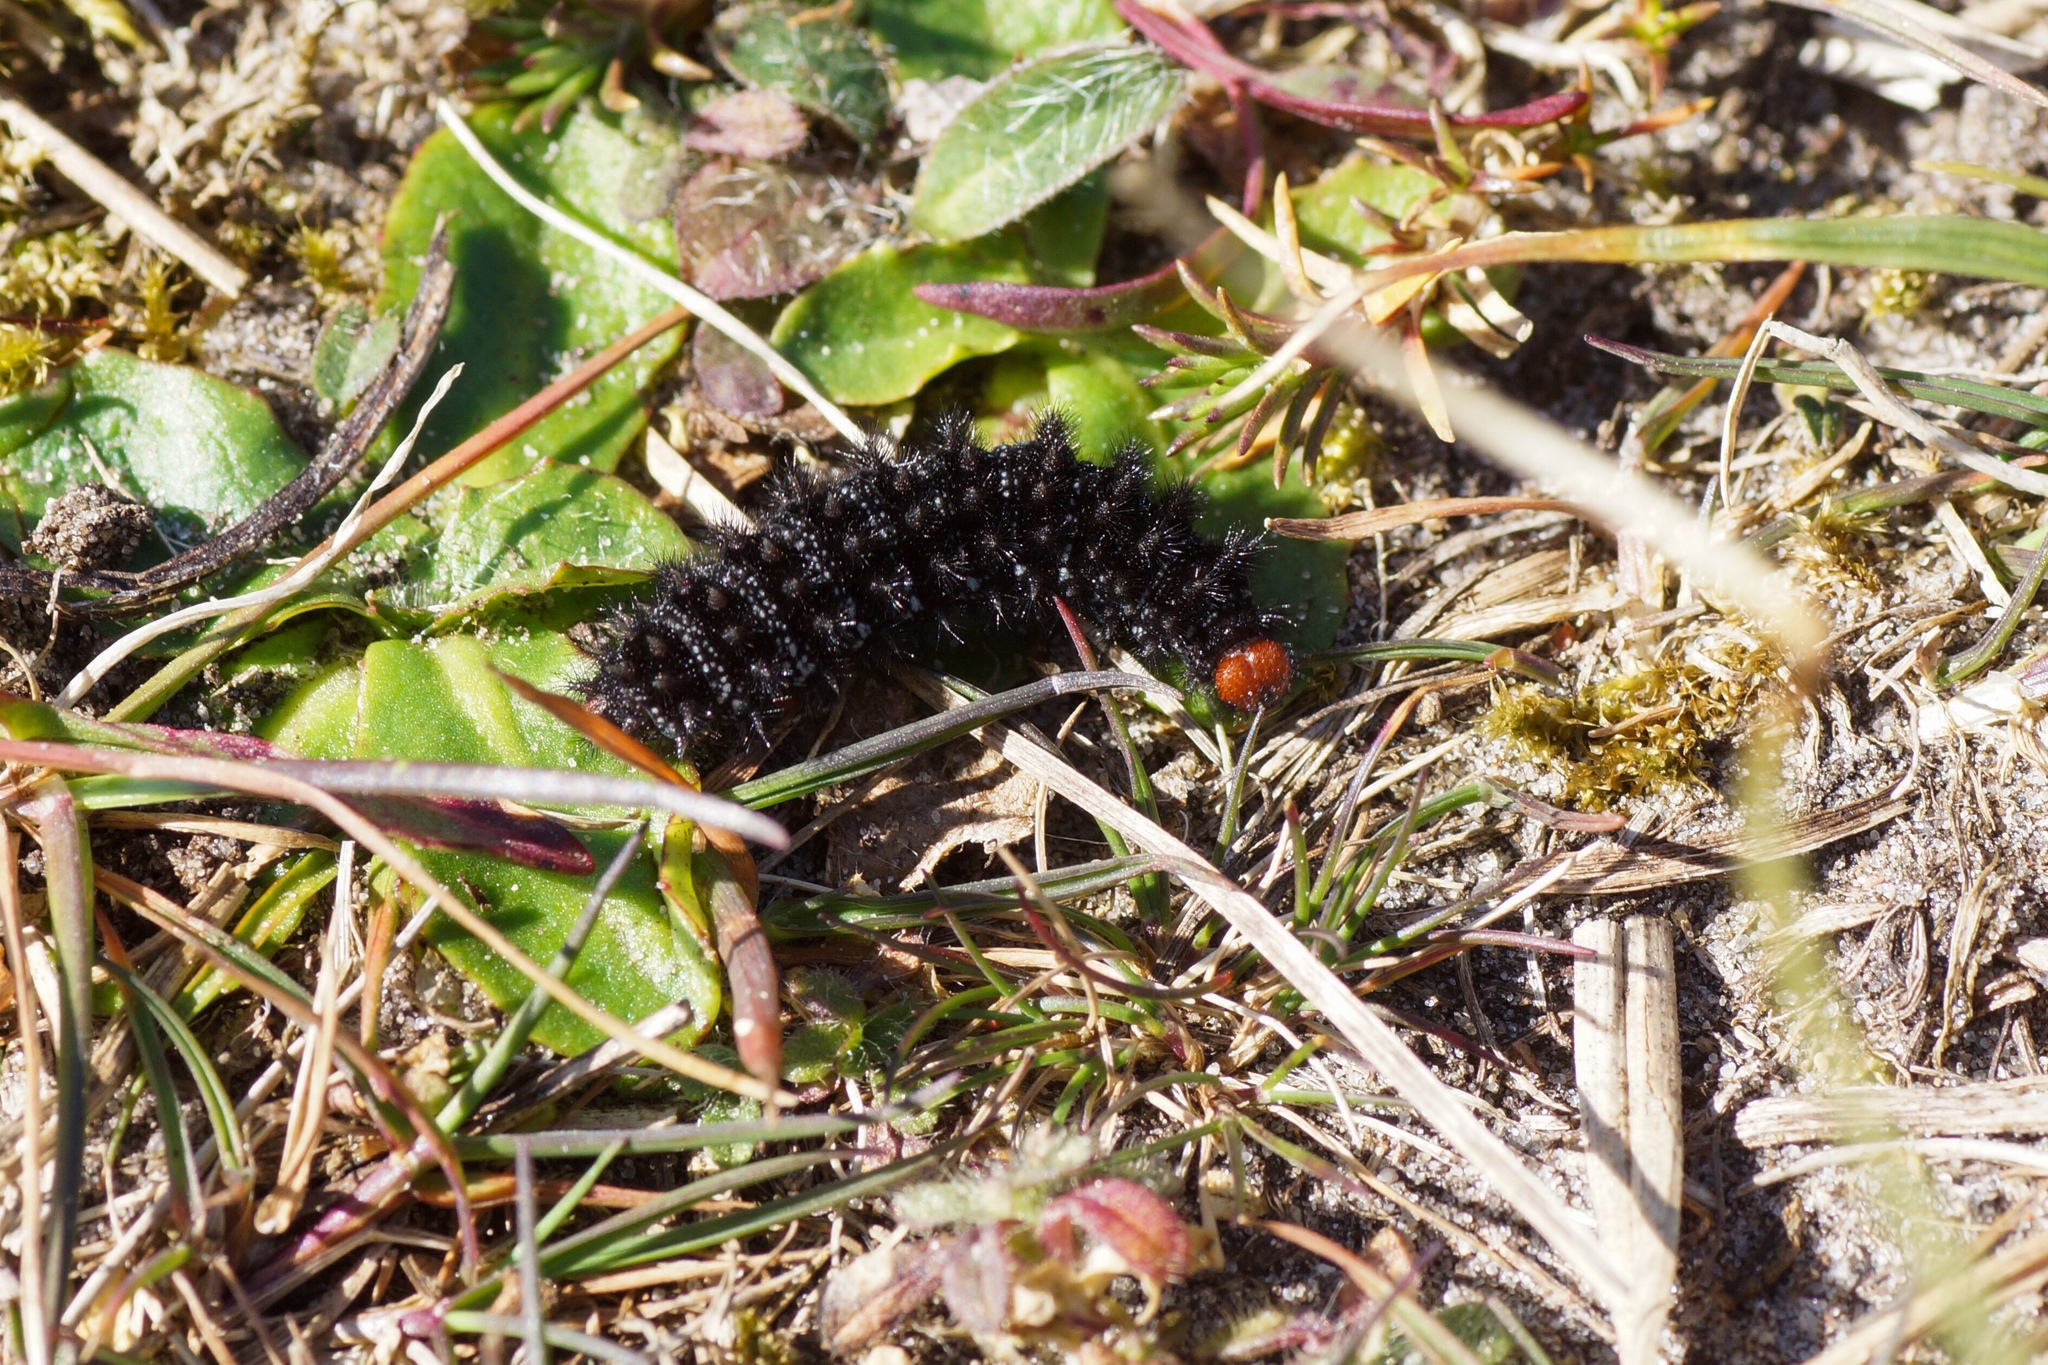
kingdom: Animalia
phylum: Arthropoda
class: Insecta
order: Lepidoptera
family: Nymphalidae
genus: Melitaea
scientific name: Melitaea cinxia
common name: Glanville fritillary
